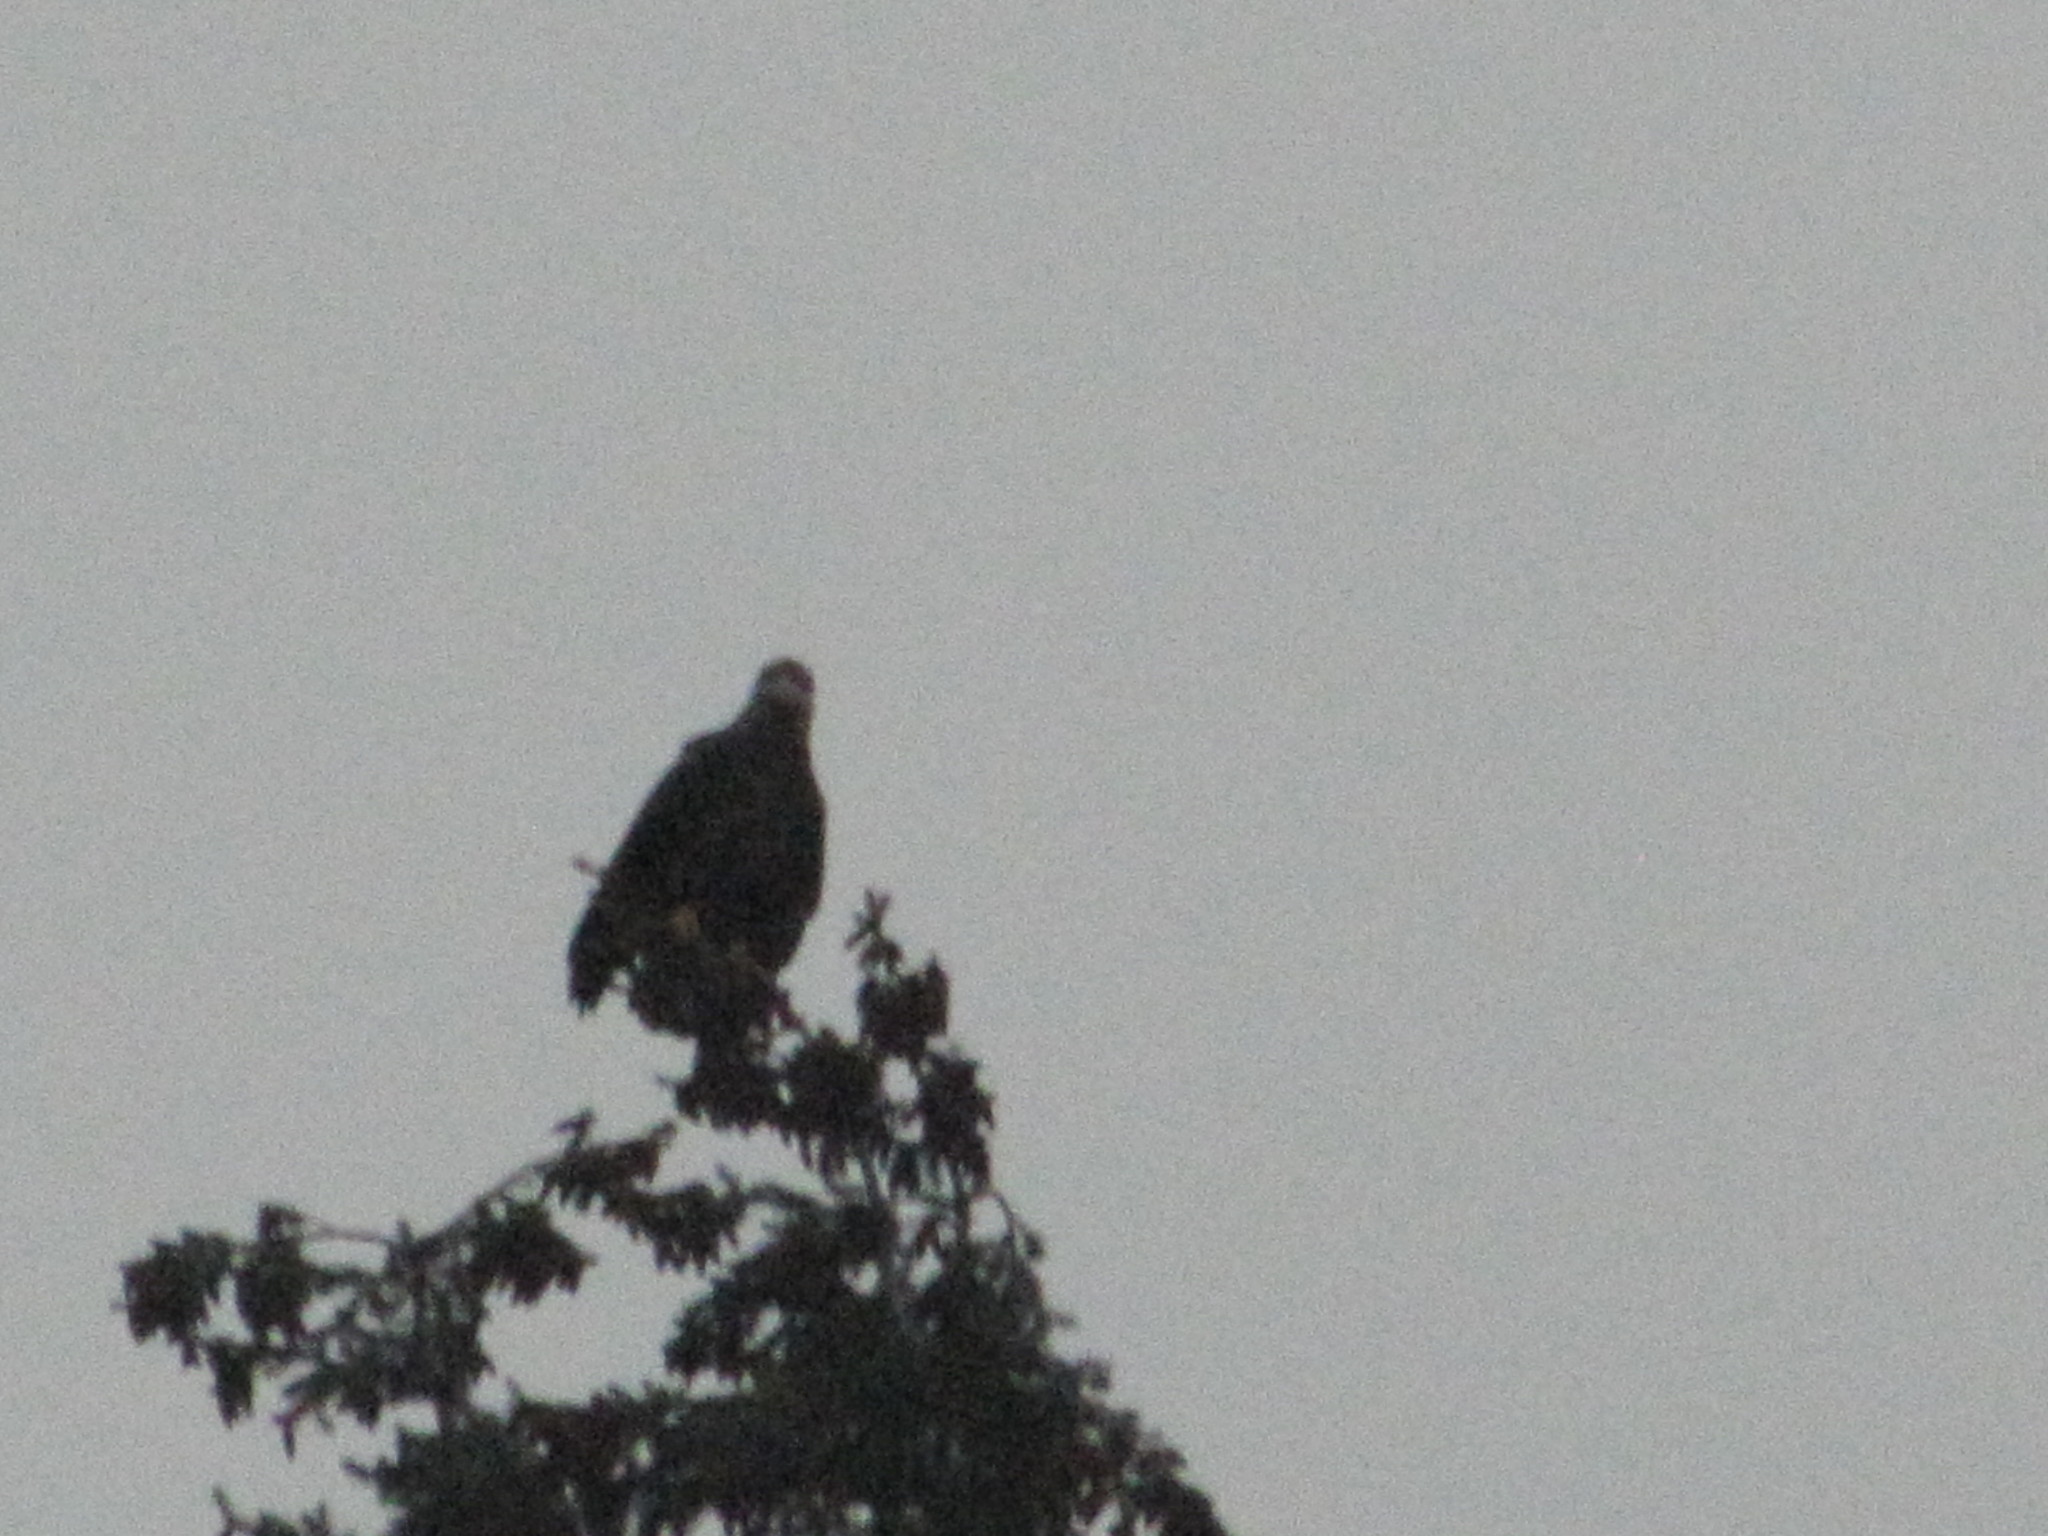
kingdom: Animalia
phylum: Chordata
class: Aves
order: Accipitriformes
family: Accipitridae
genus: Haliaeetus
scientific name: Haliaeetus leucocephalus
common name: Bald eagle
